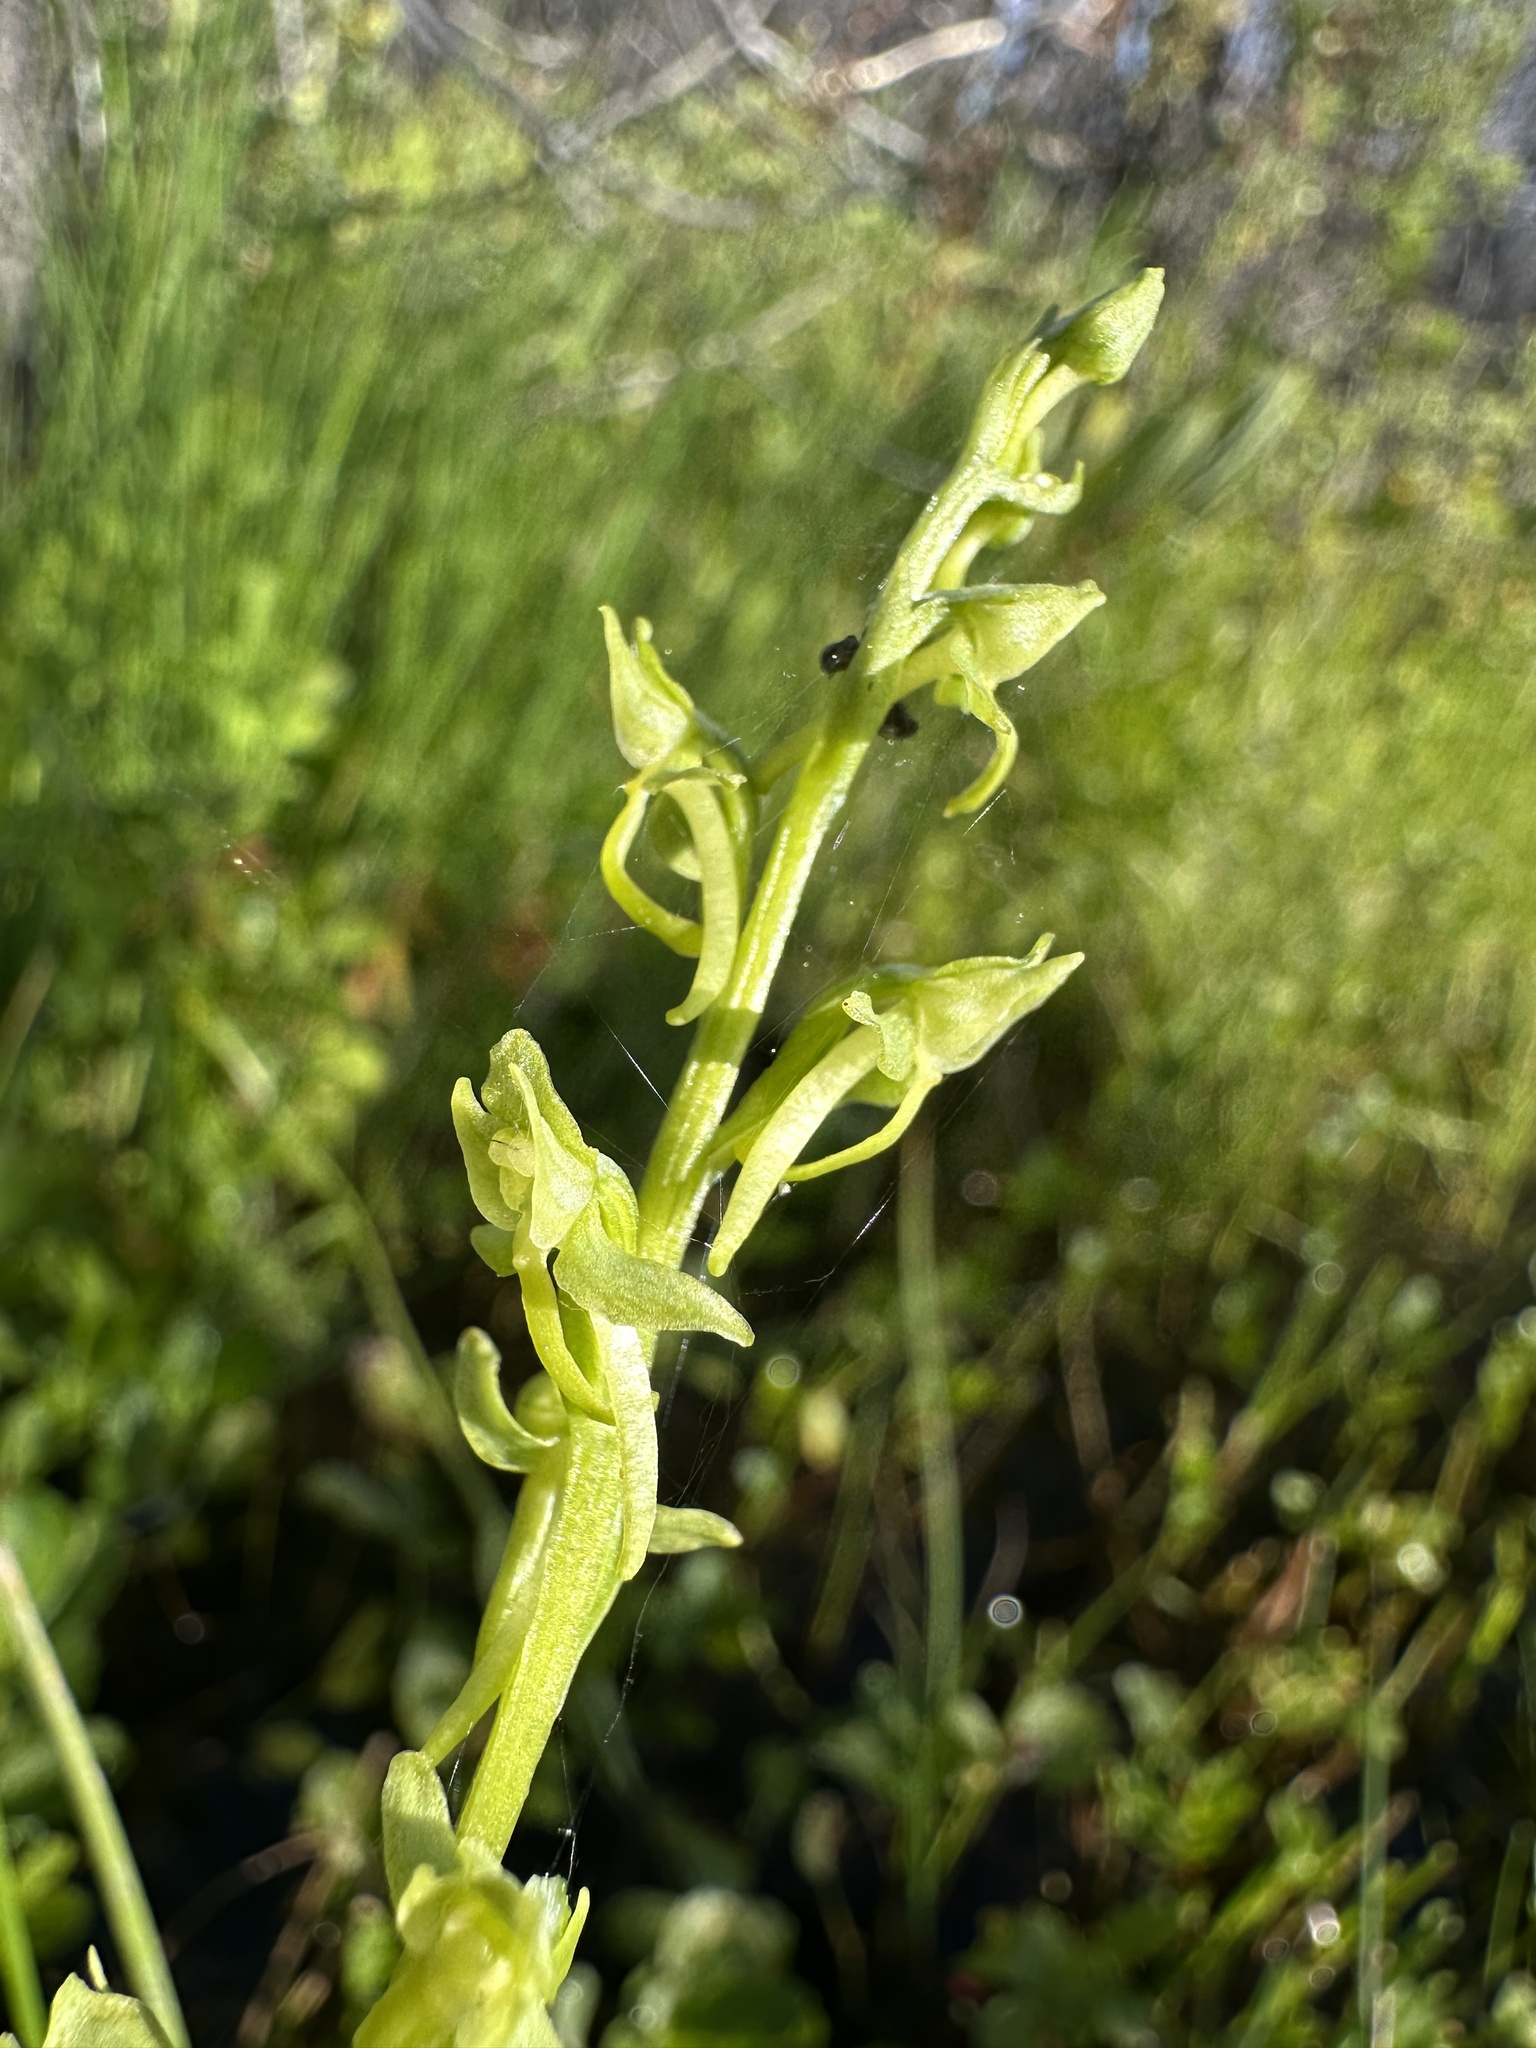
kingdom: Plantae
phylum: Tracheophyta
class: Liliopsida
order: Asparagales
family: Orchidaceae
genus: Platanthera
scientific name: Platanthera sparsiflora
